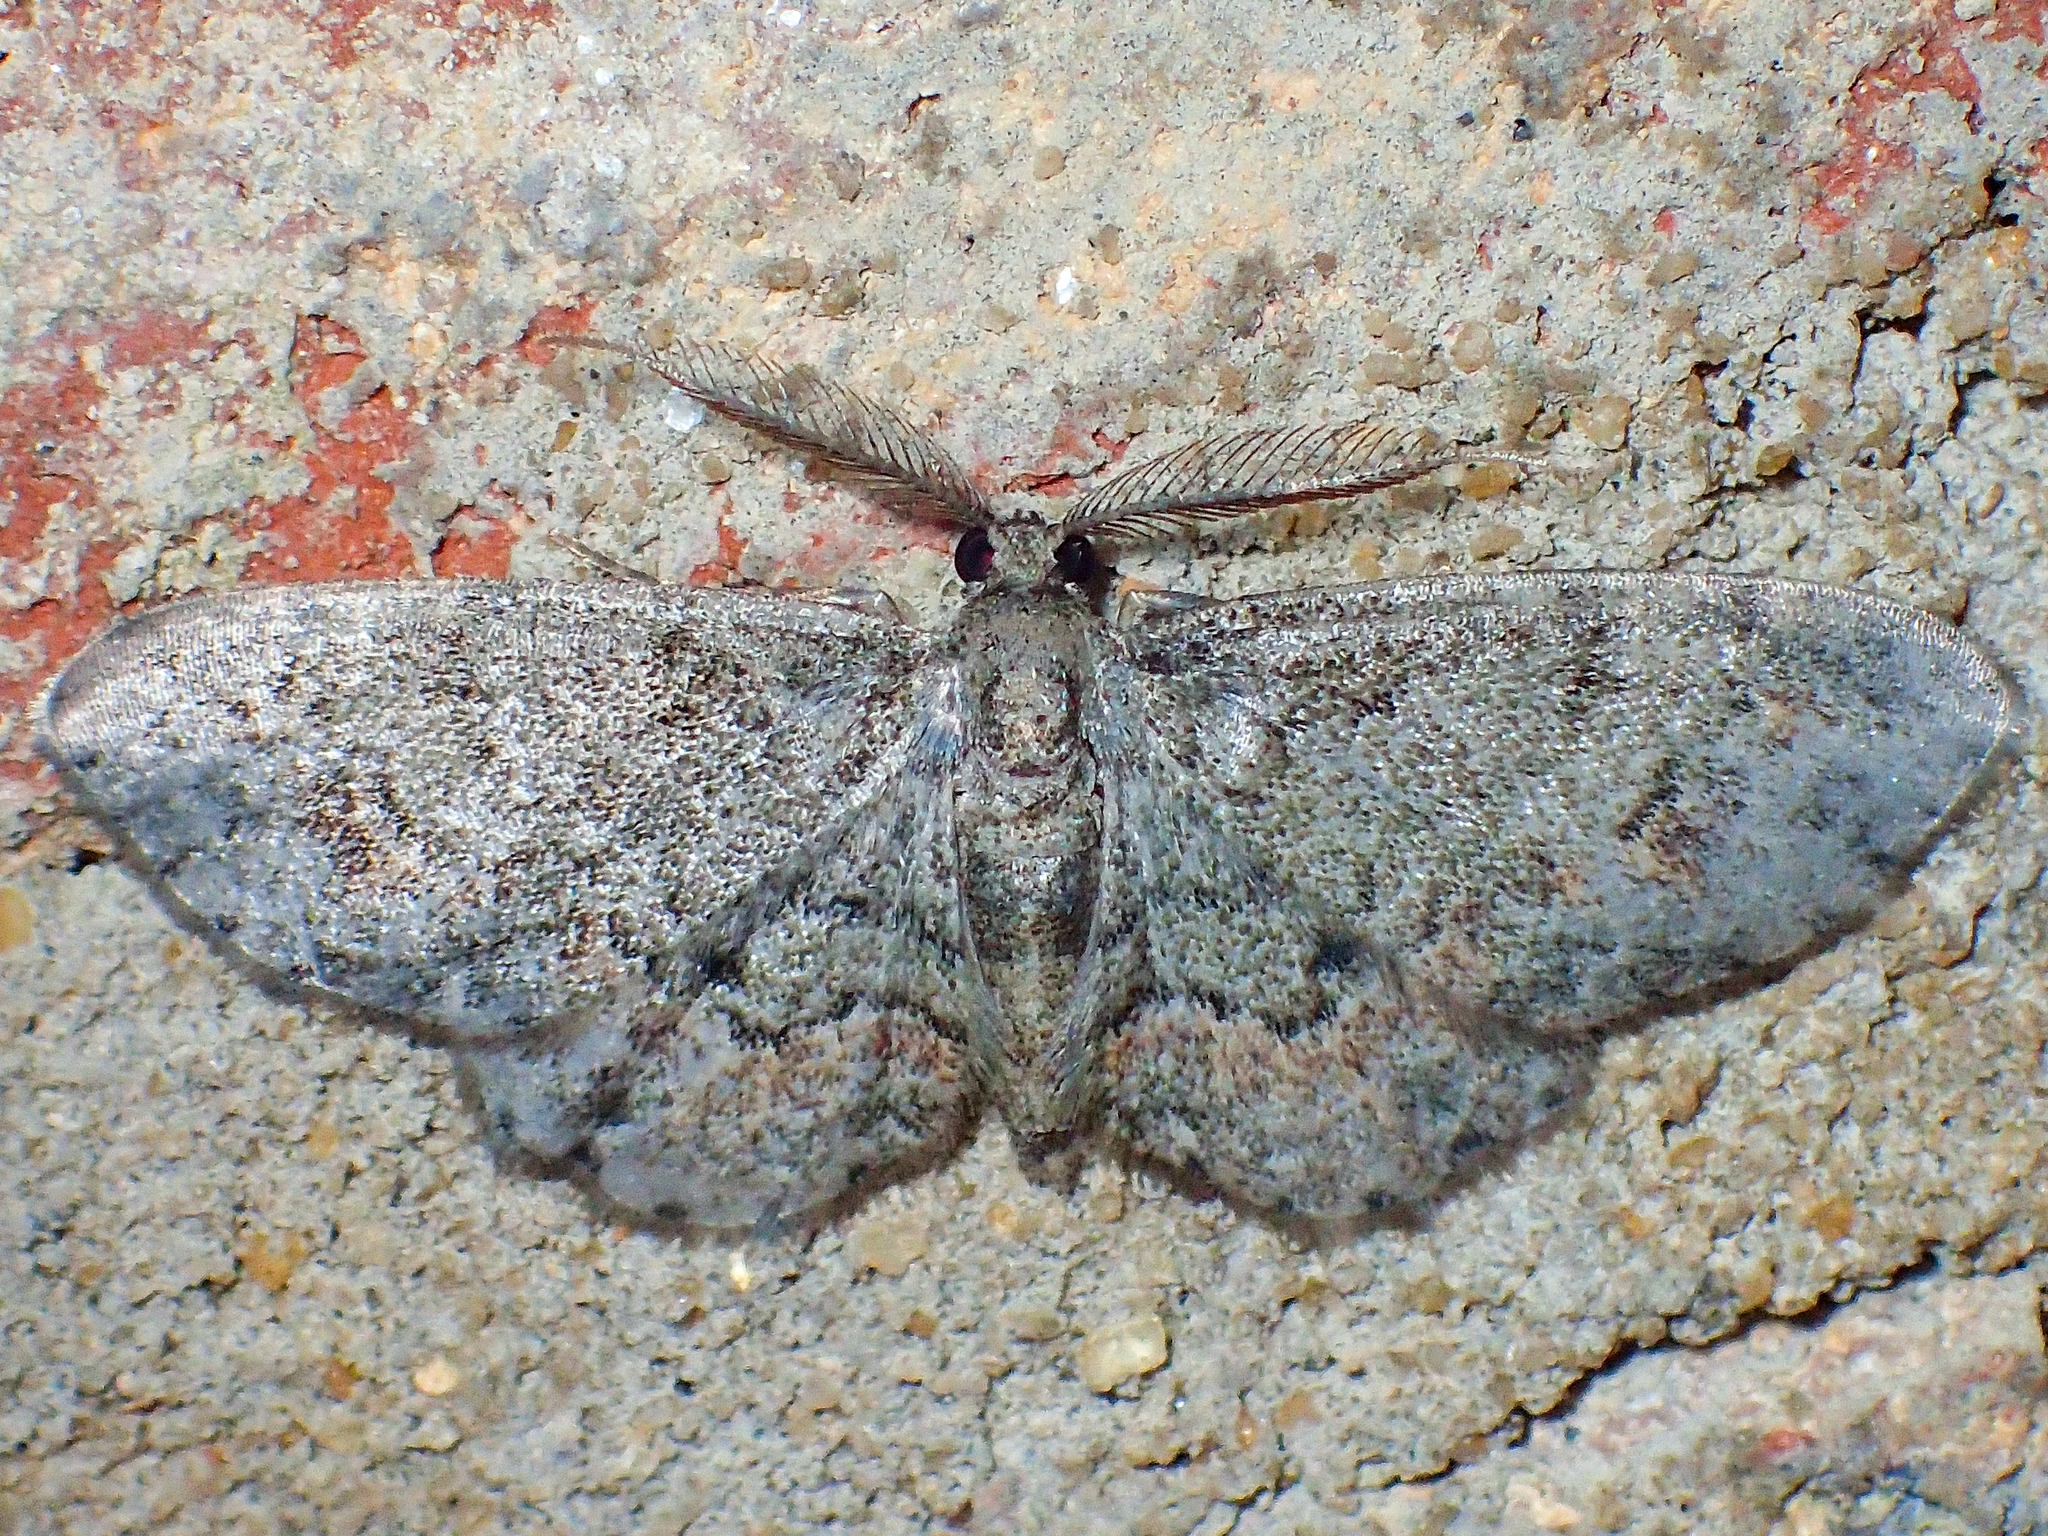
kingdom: Animalia
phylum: Arthropoda
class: Insecta
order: Lepidoptera
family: Geometridae
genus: Glenoides
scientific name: Glenoides texanaria
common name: Texas gray
